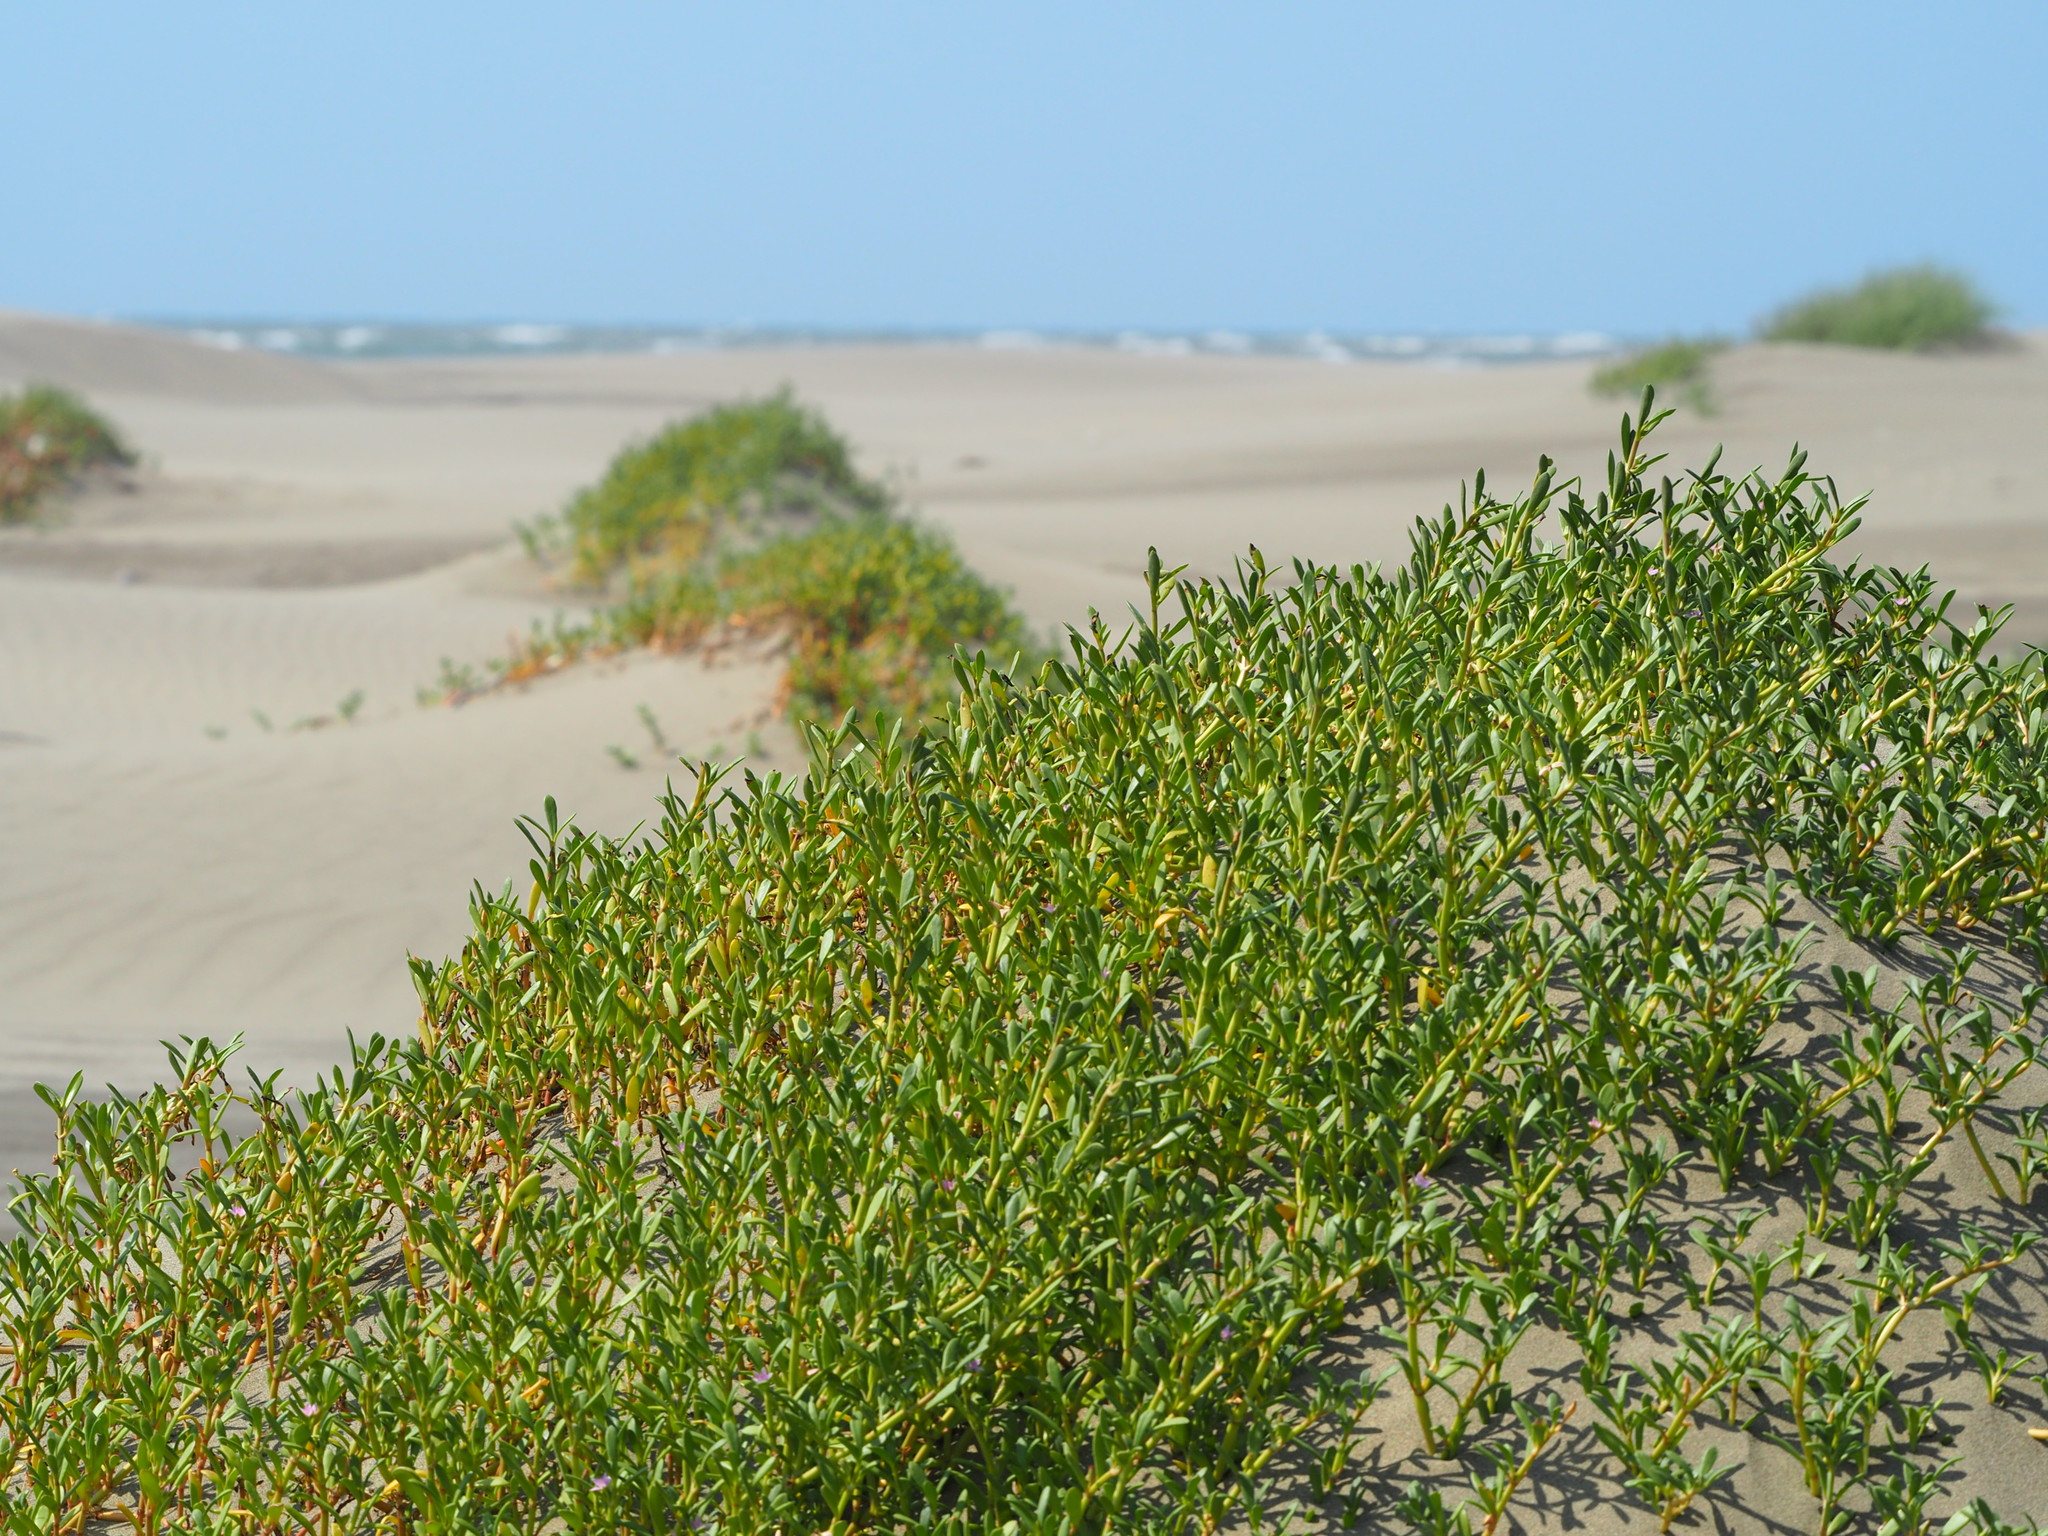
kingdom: Plantae
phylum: Tracheophyta
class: Magnoliopsida
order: Caryophyllales
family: Aizoaceae
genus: Sesuvium
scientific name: Sesuvium portulacastrum
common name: Sea-purslane
